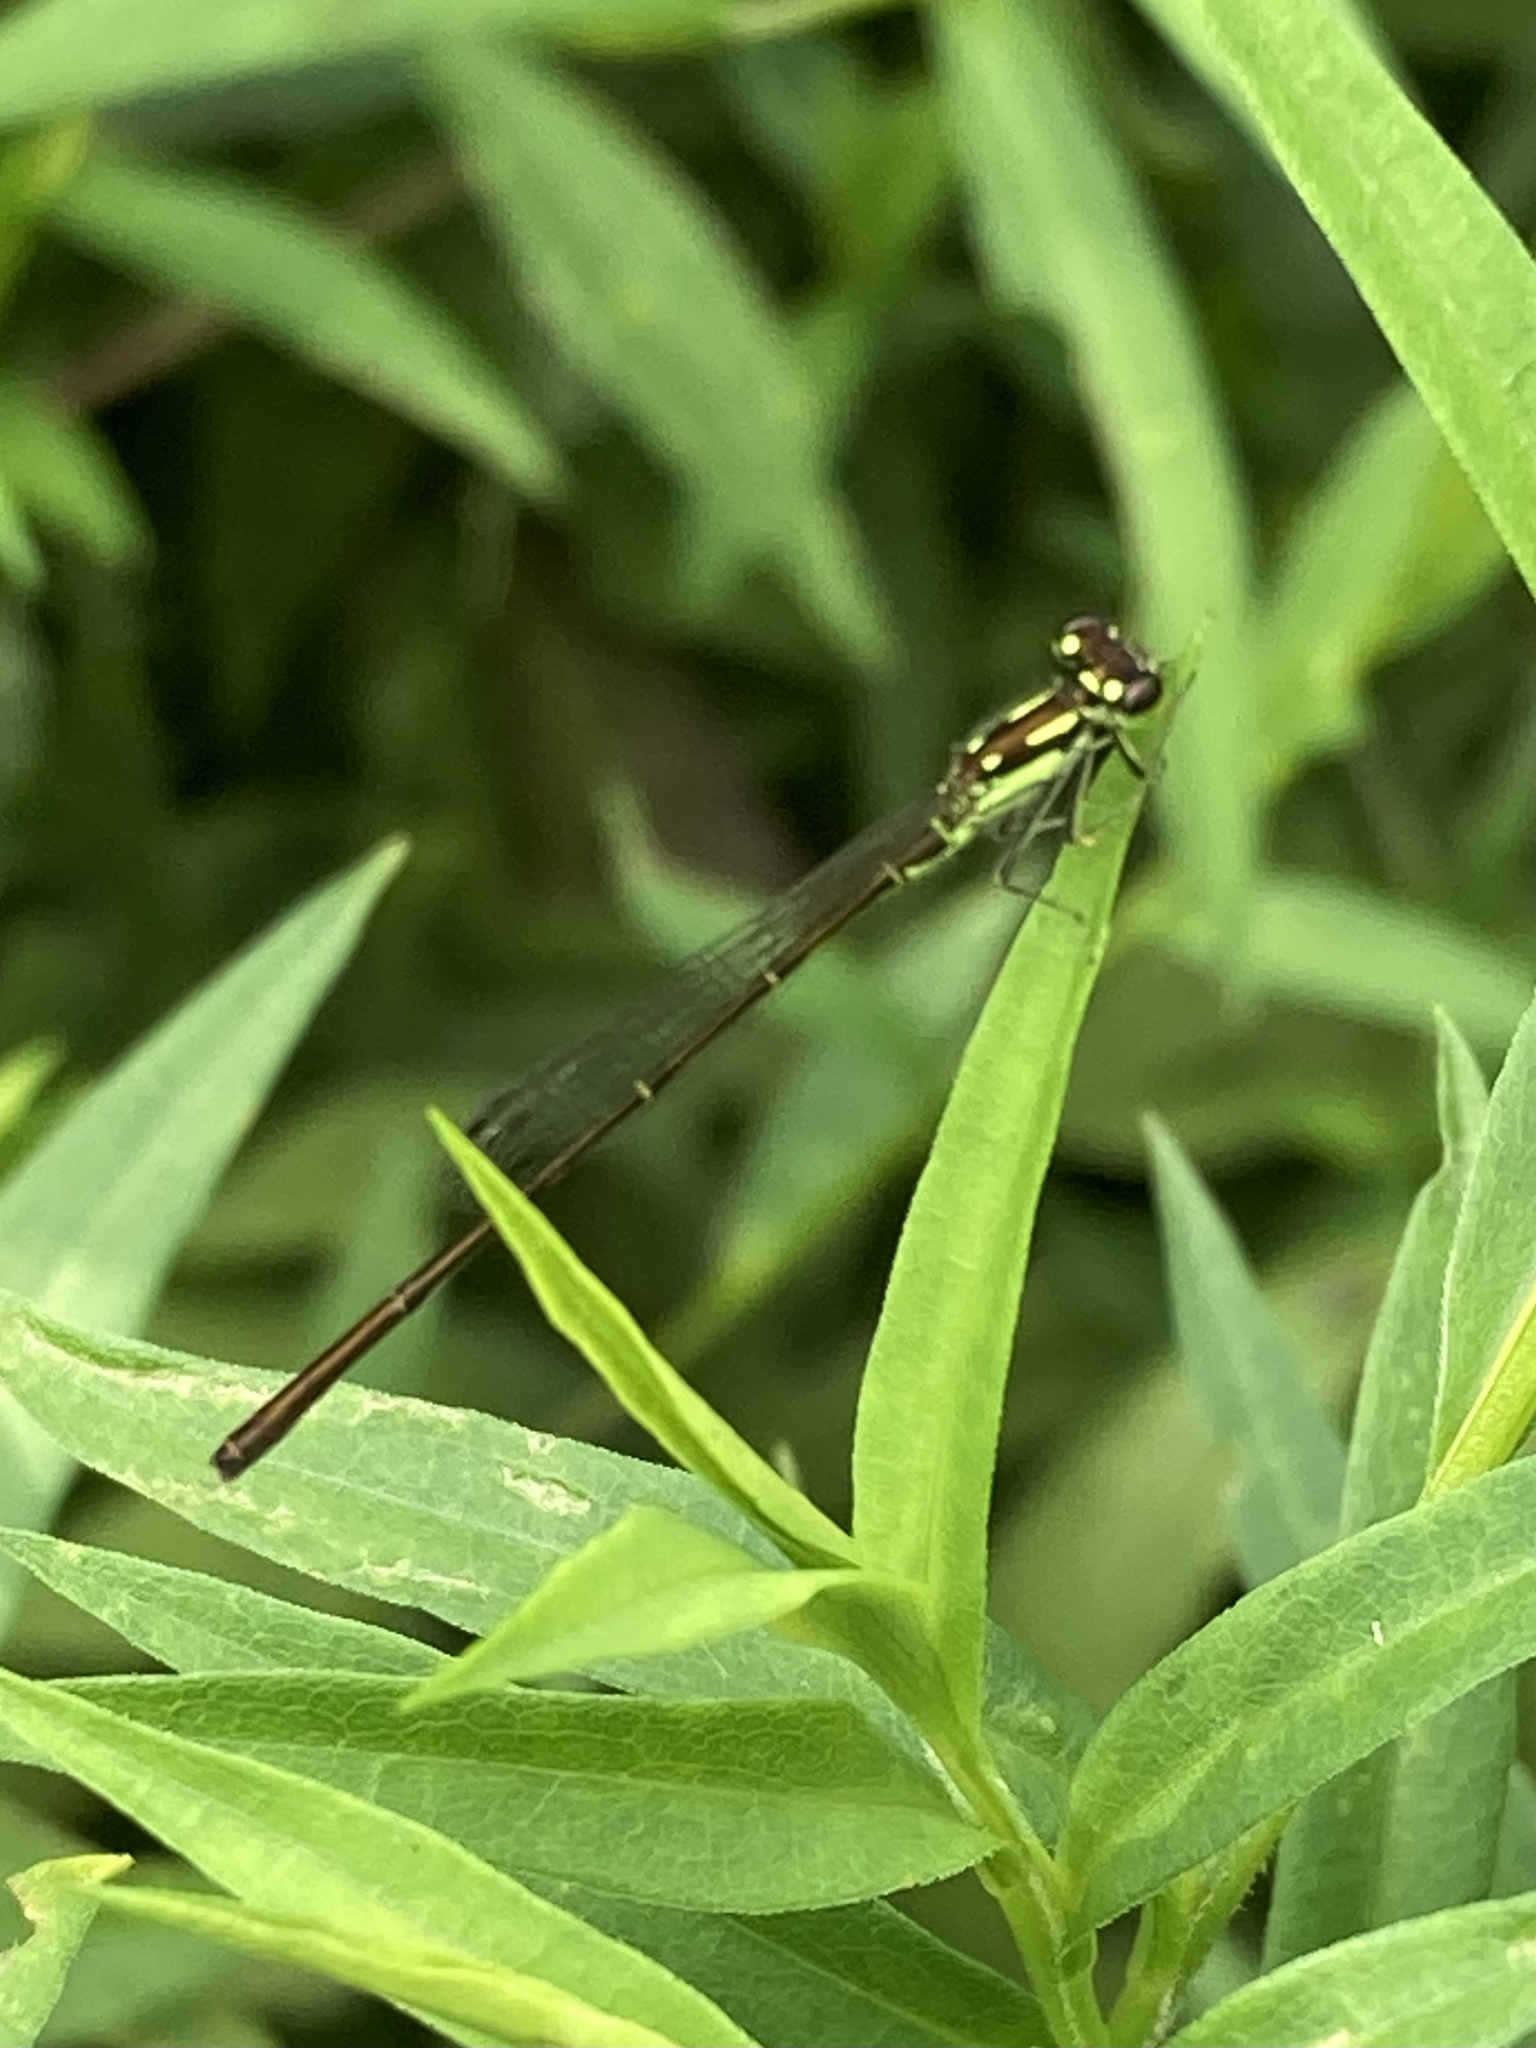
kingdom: Animalia
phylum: Arthropoda
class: Insecta
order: Odonata
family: Coenagrionidae
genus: Ischnura
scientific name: Ischnura posita
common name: Fragile forktail
